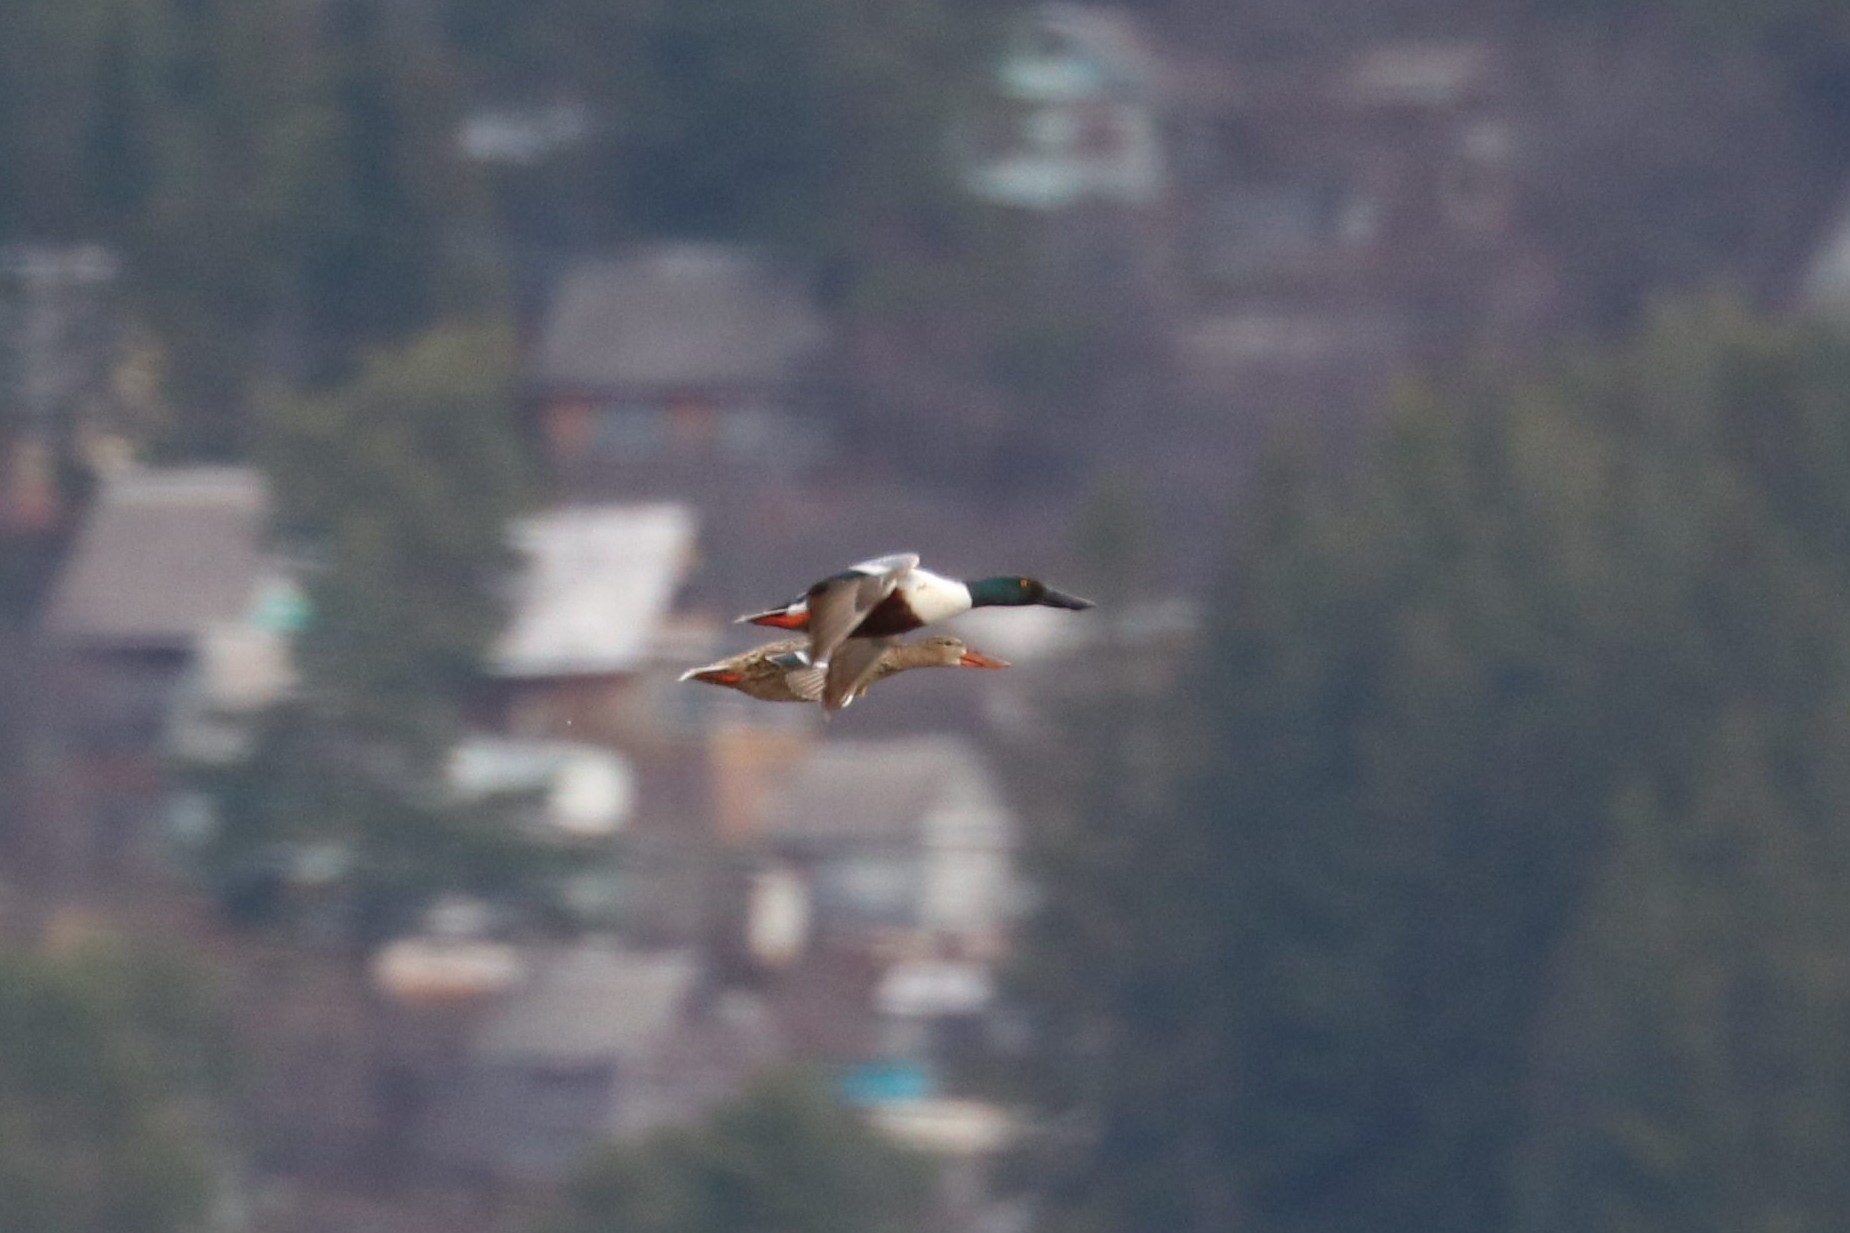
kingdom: Animalia
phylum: Chordata
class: Aves
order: Anseriformes
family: Anatidae
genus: Spatula
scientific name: Spatula clypeata
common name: Northern shoveler
